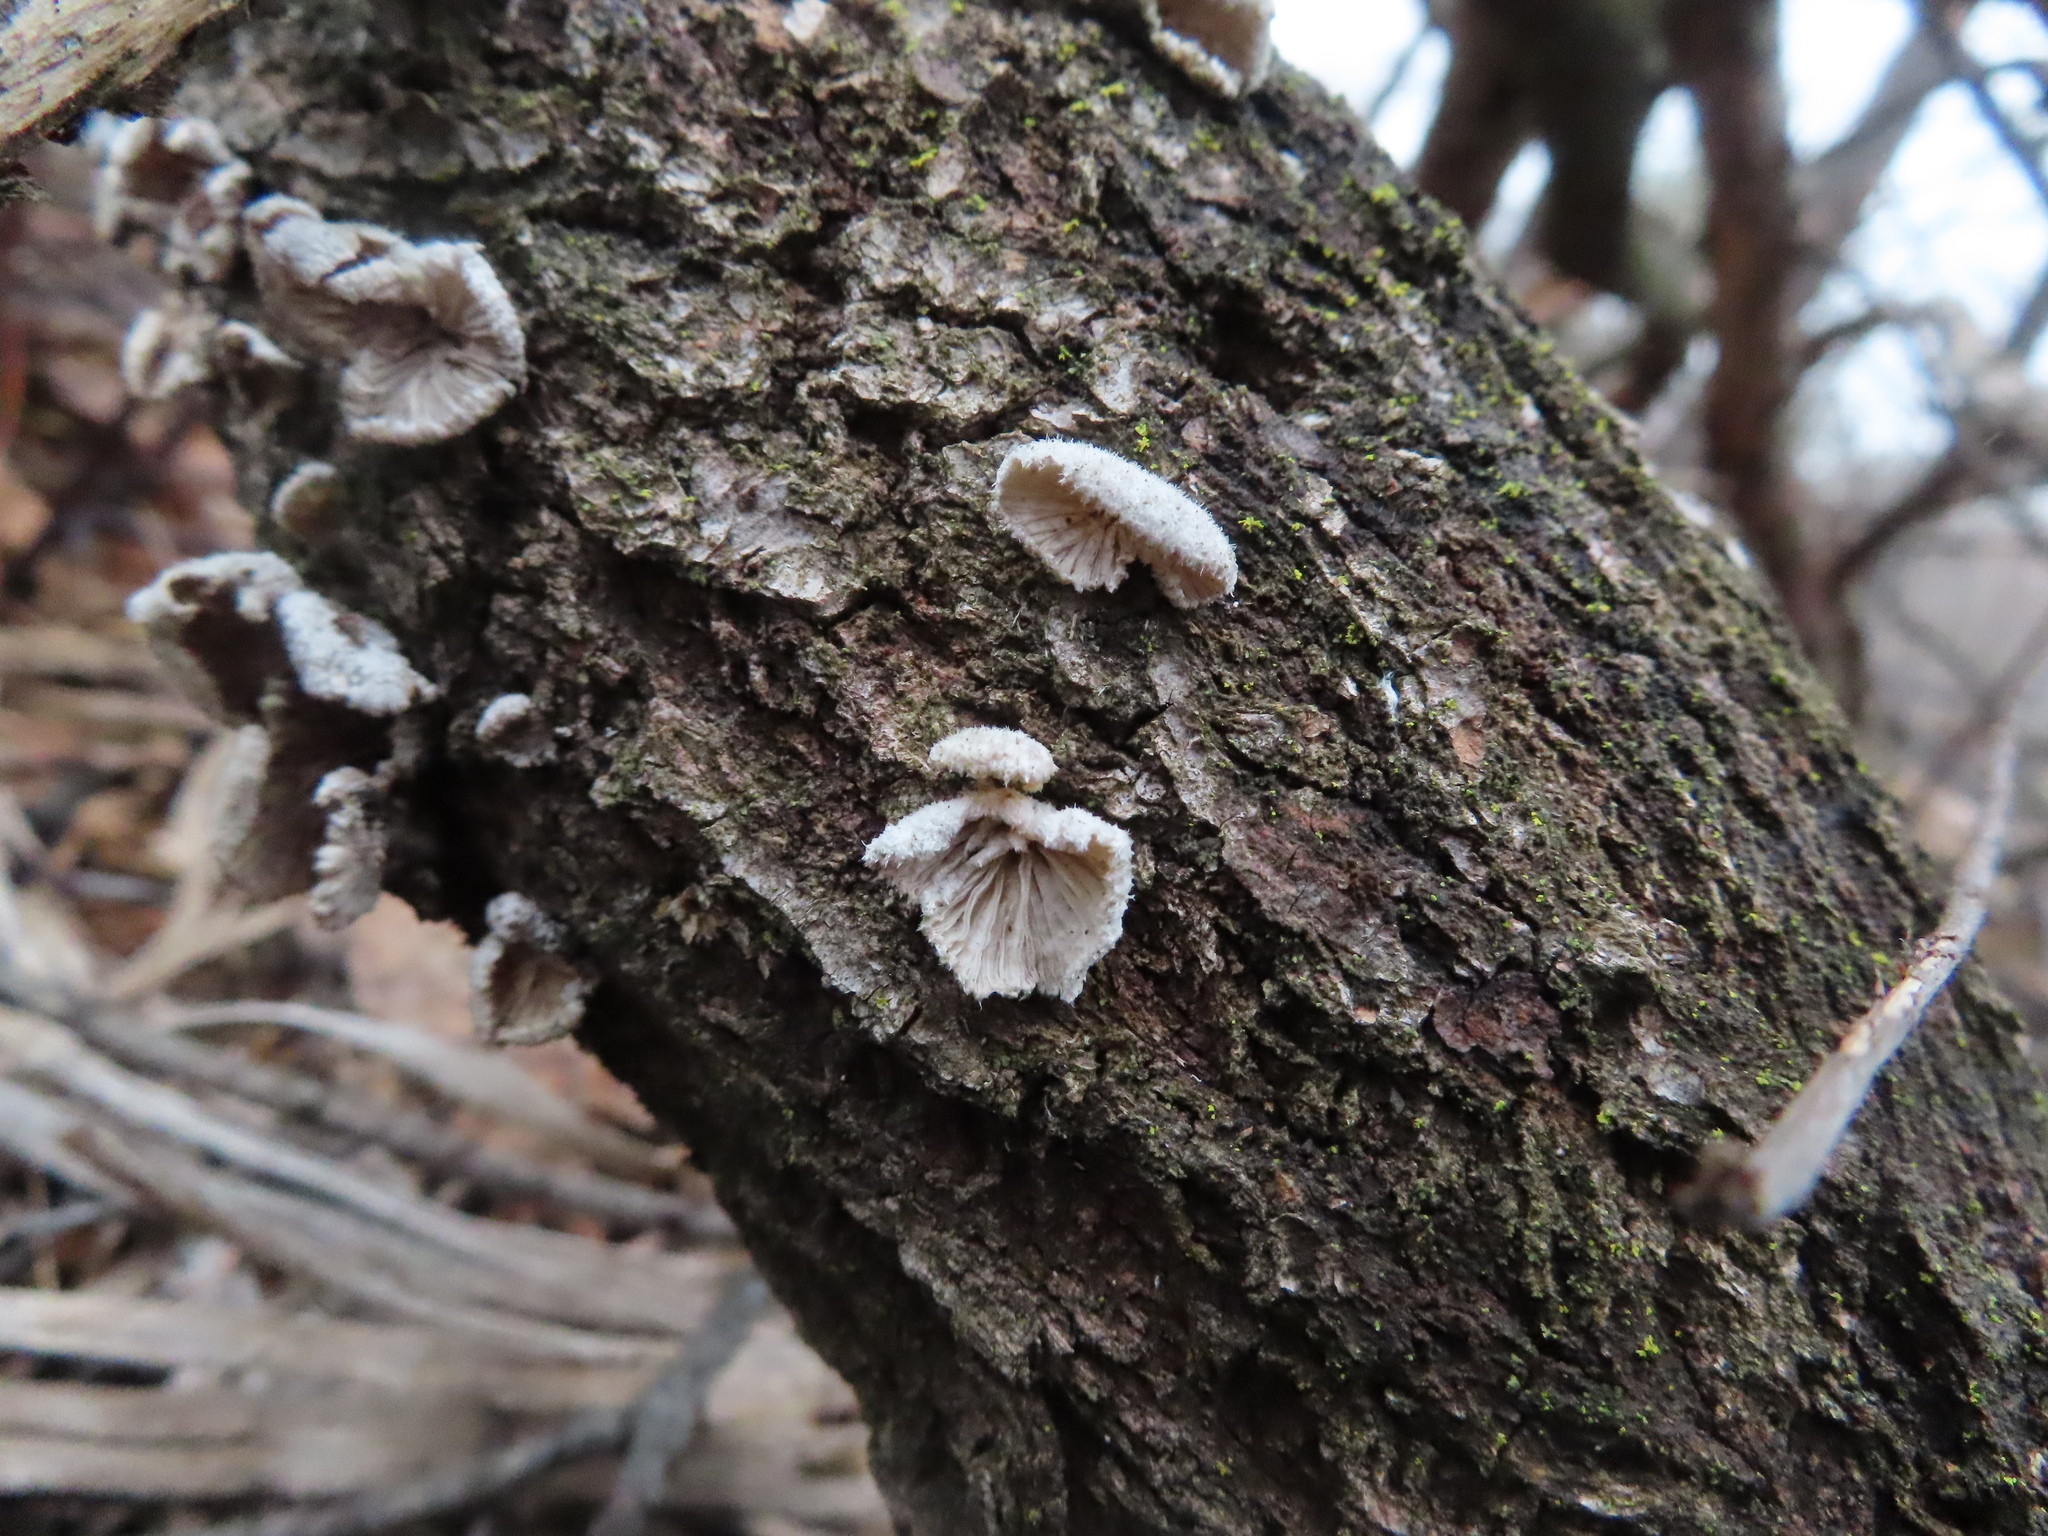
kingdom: Fungi
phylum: Basidiomycota
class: Agaricomycetes
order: Agaricales
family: Schizophyllaceae
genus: Schizophyllum
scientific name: Schizophyllum commune
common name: Common porecrust
